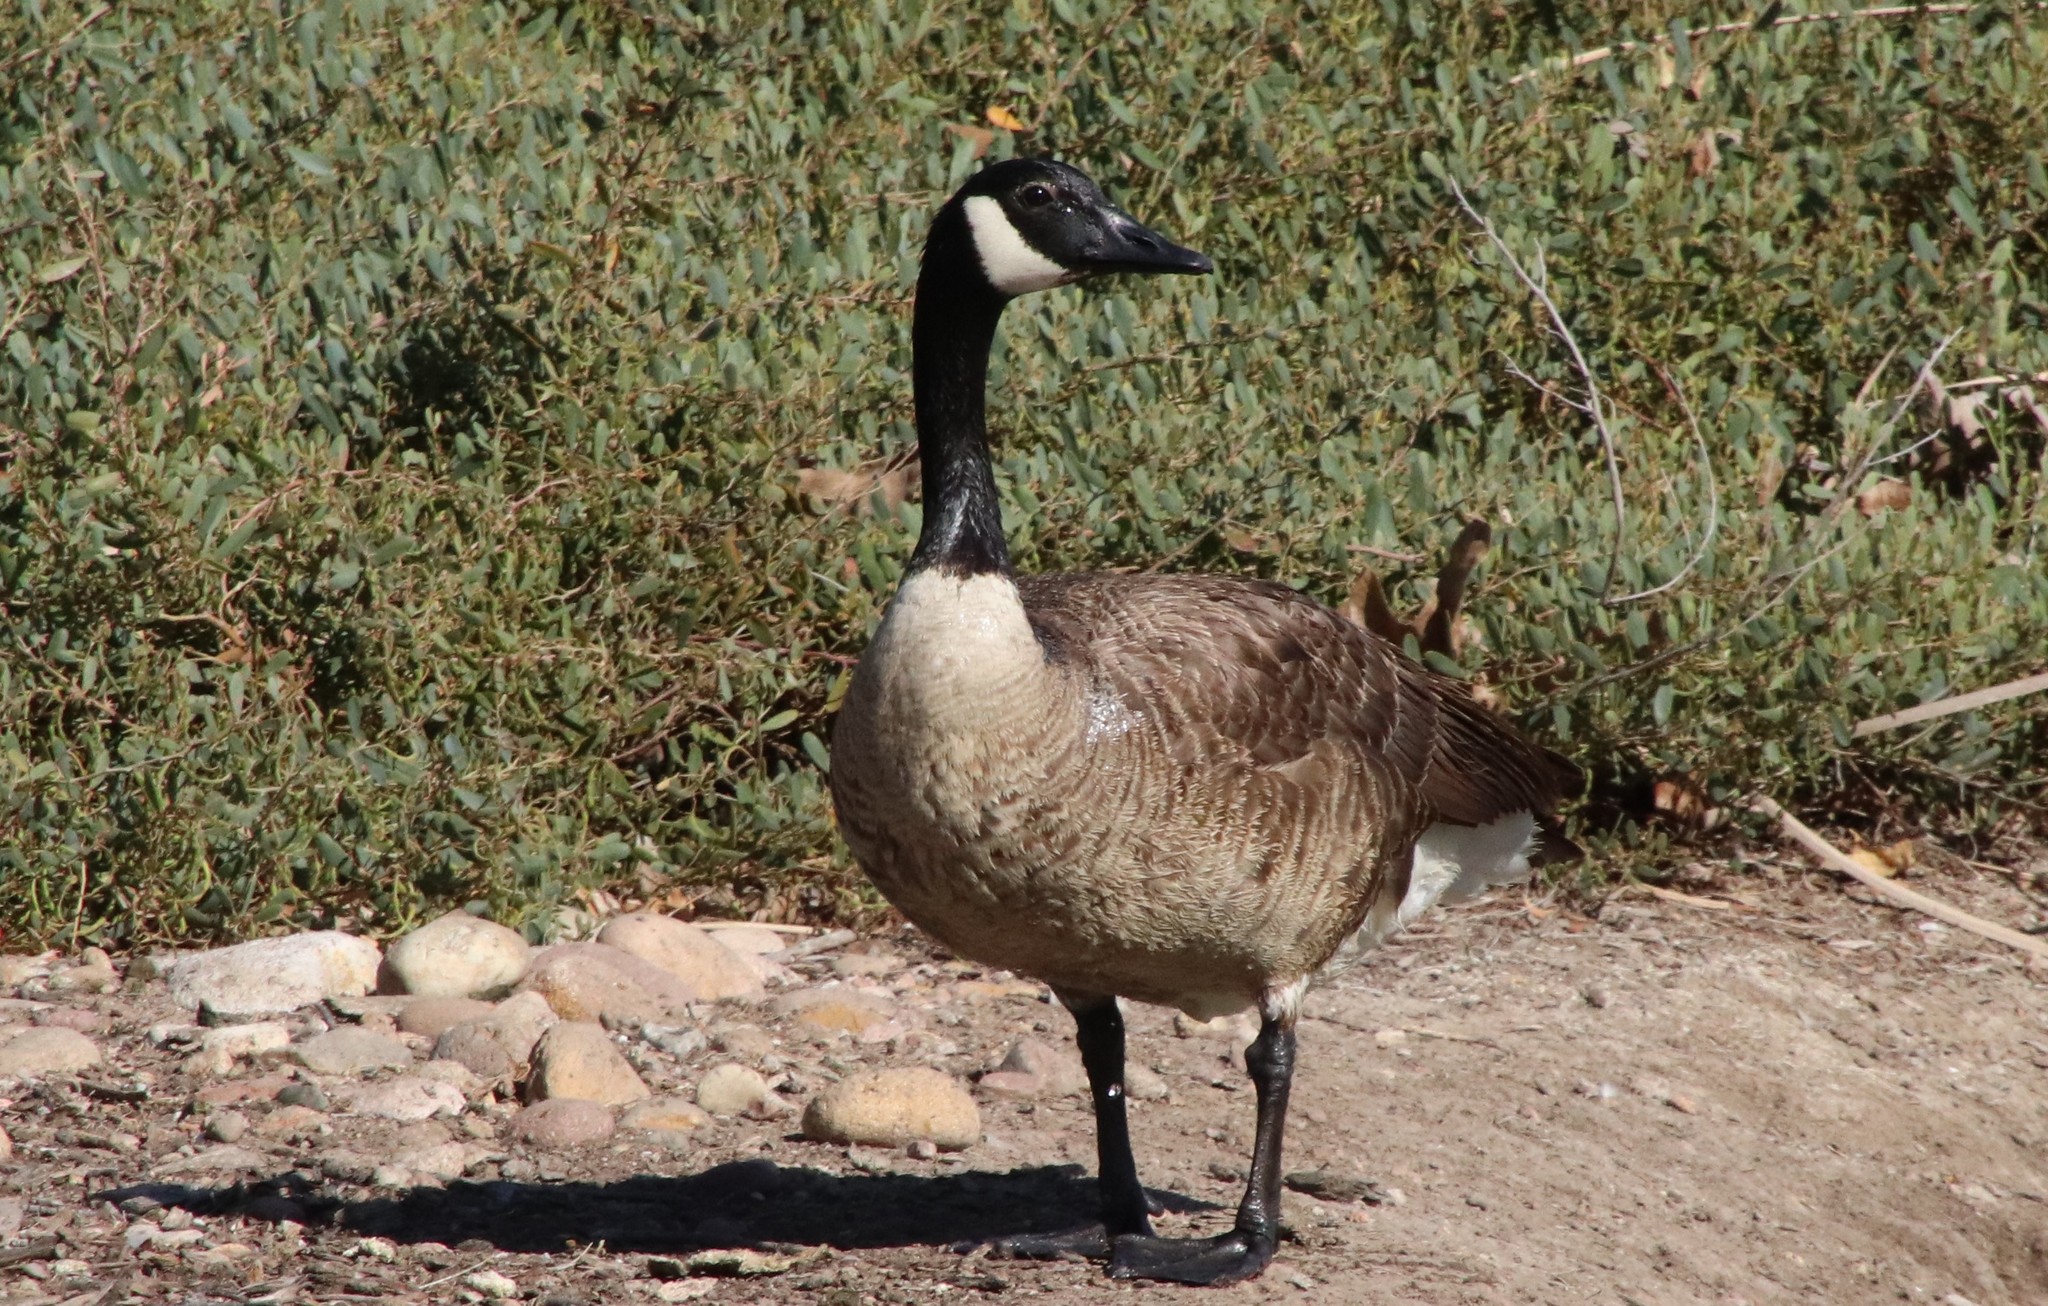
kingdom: Animalia
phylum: Chordata
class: Aves
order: Anseriformes
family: Anatidae
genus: Branta
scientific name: Branta canadensis
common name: Canada goose
